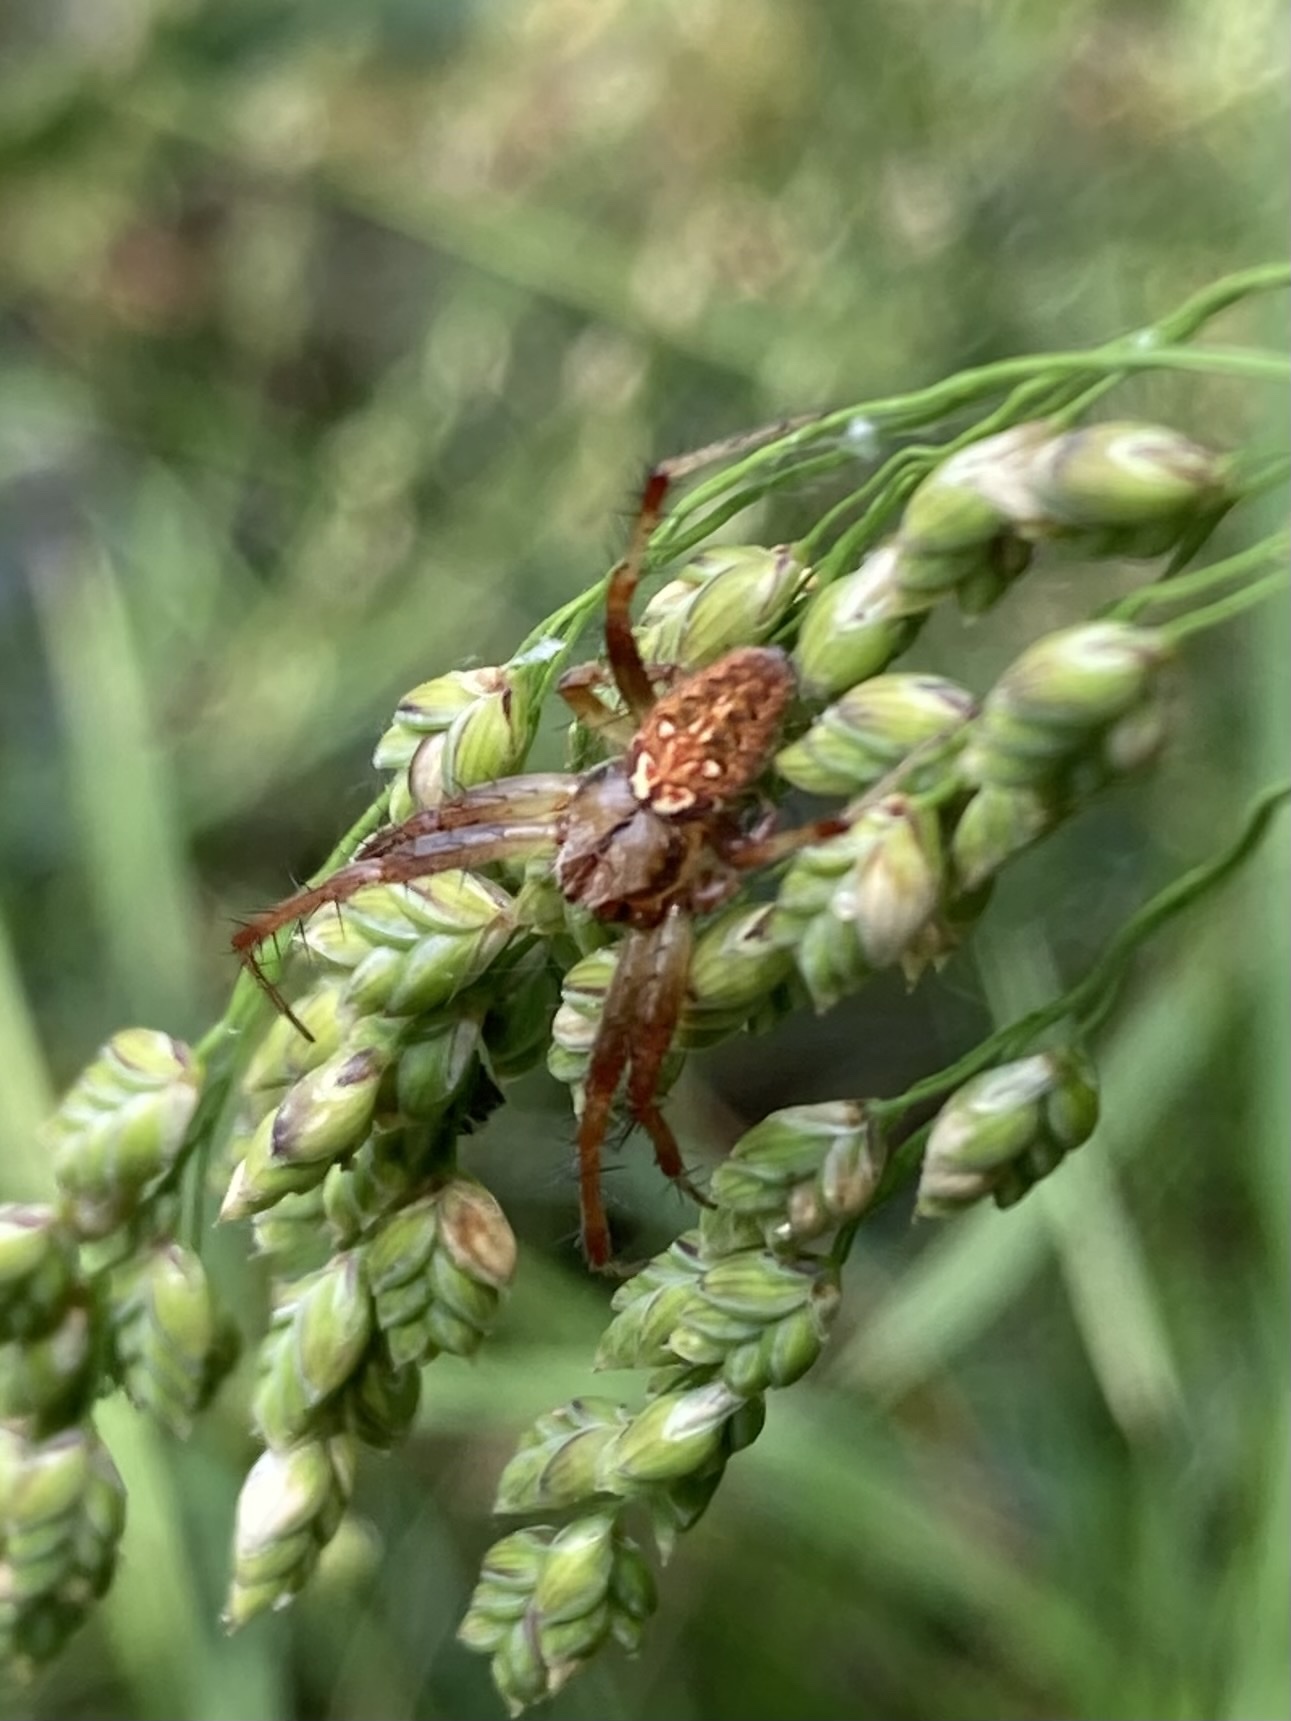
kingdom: Animalia
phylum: Arthropoda
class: Arachnida
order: Araneae
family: Araneidae
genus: Neoscona
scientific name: Neoscona arabesca
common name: Orb weavers
